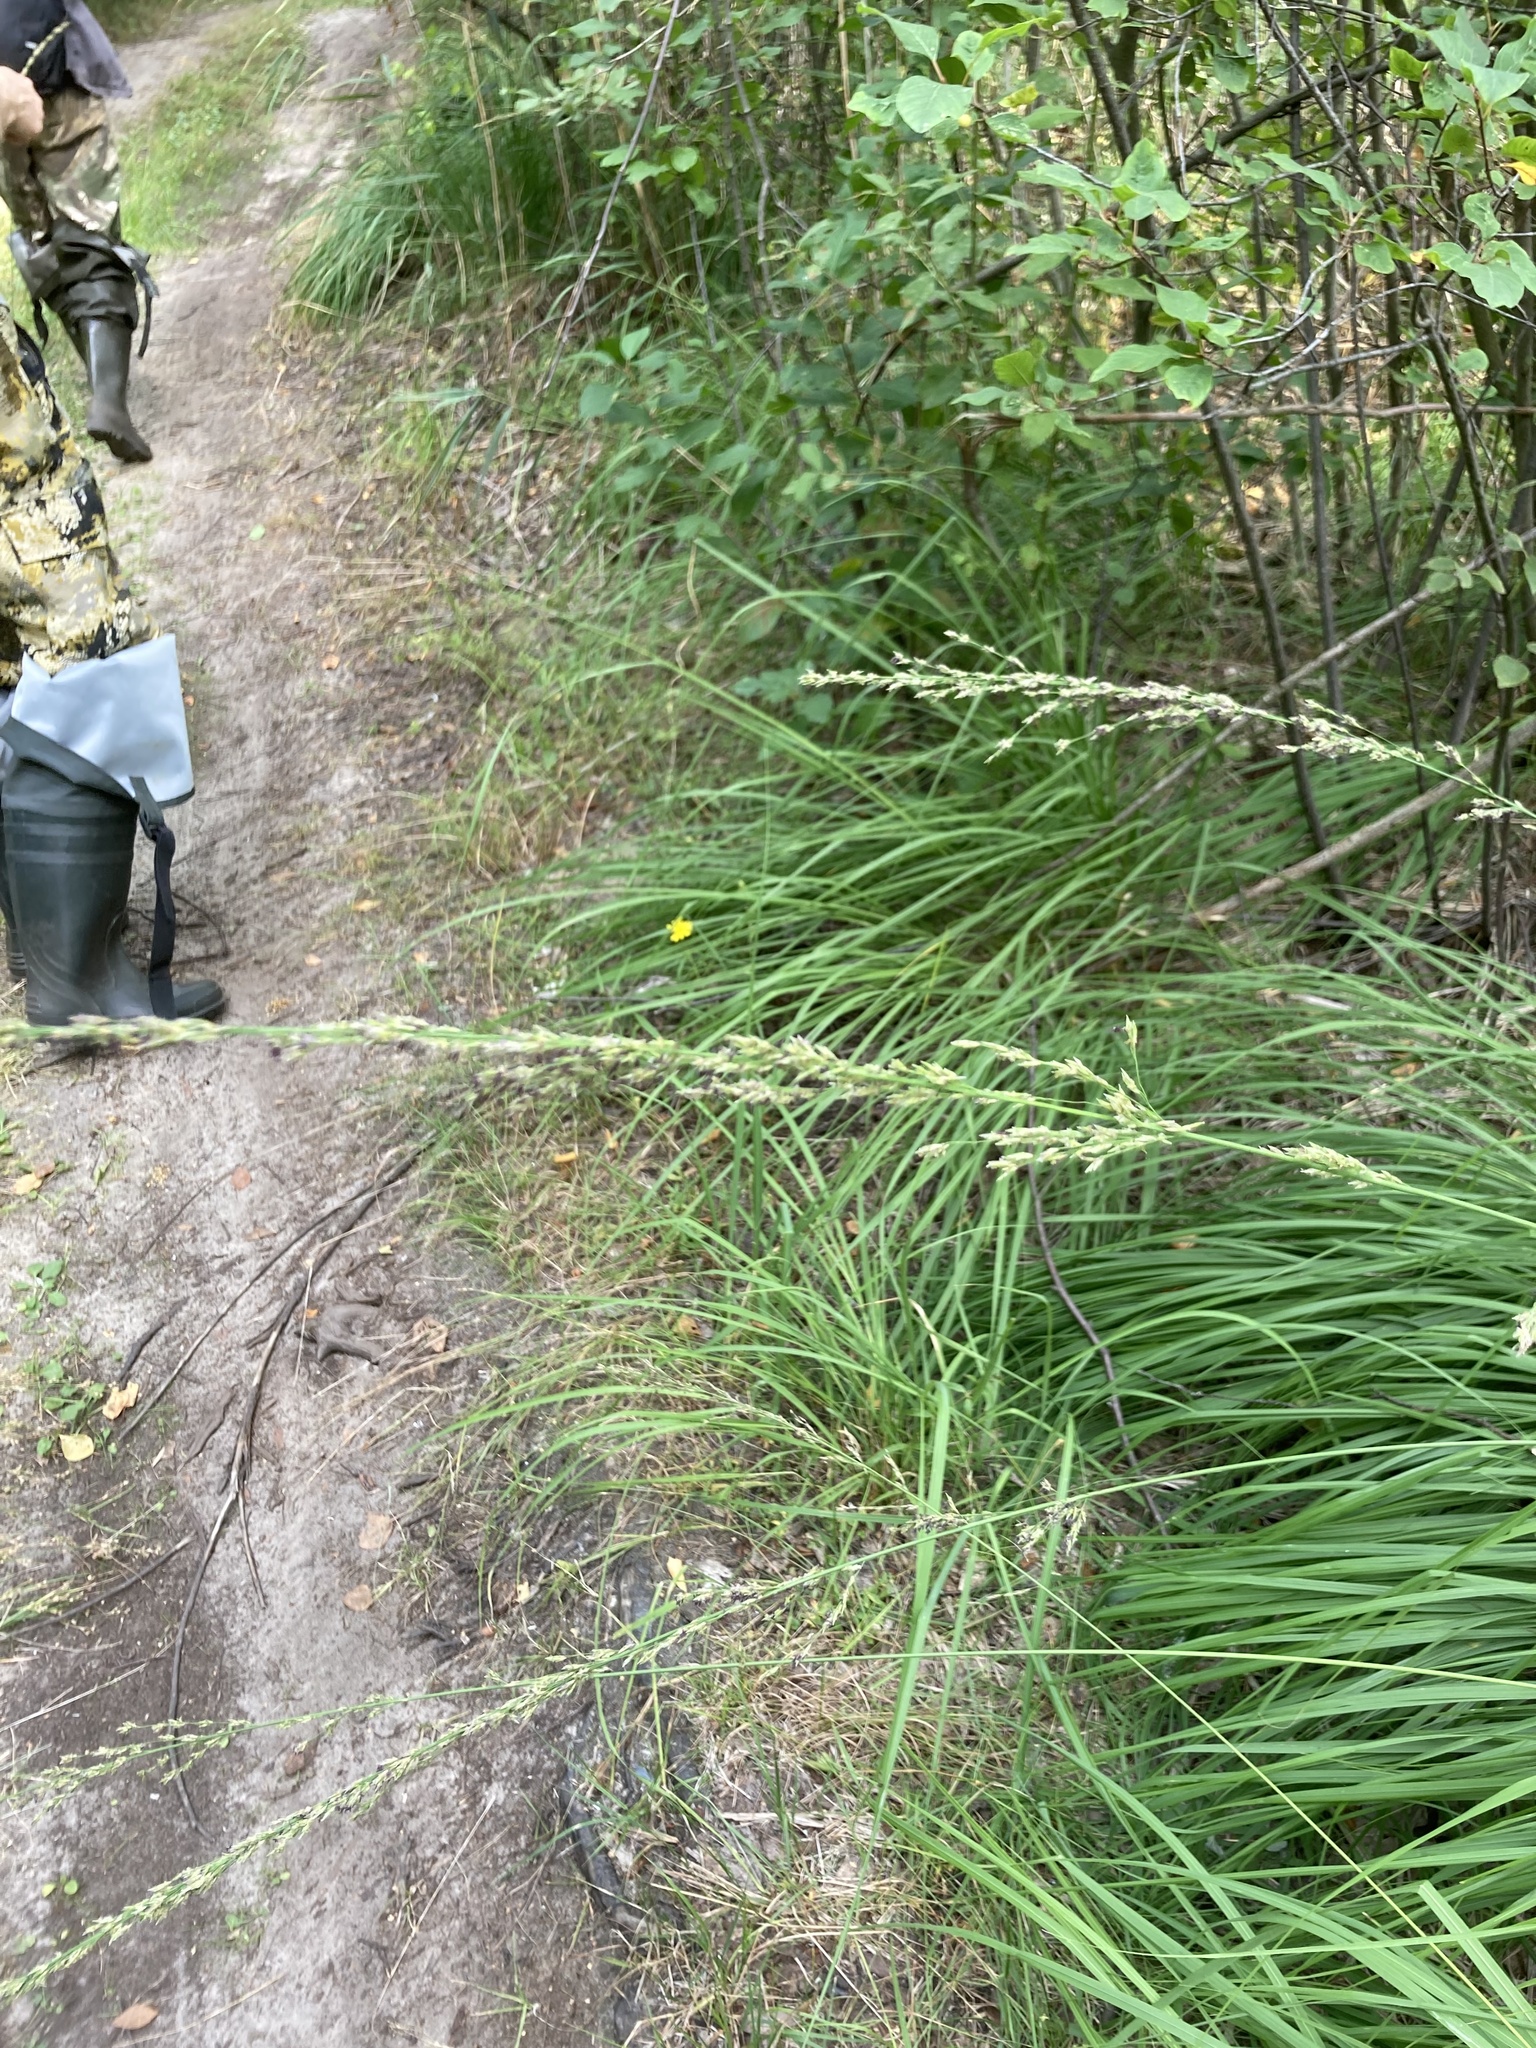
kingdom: Plantae
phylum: Tracheophyta
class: Liliopsida
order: Poales
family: Poaceae
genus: Molinia
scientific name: Molinia caerulea
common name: Purple moor-grass
